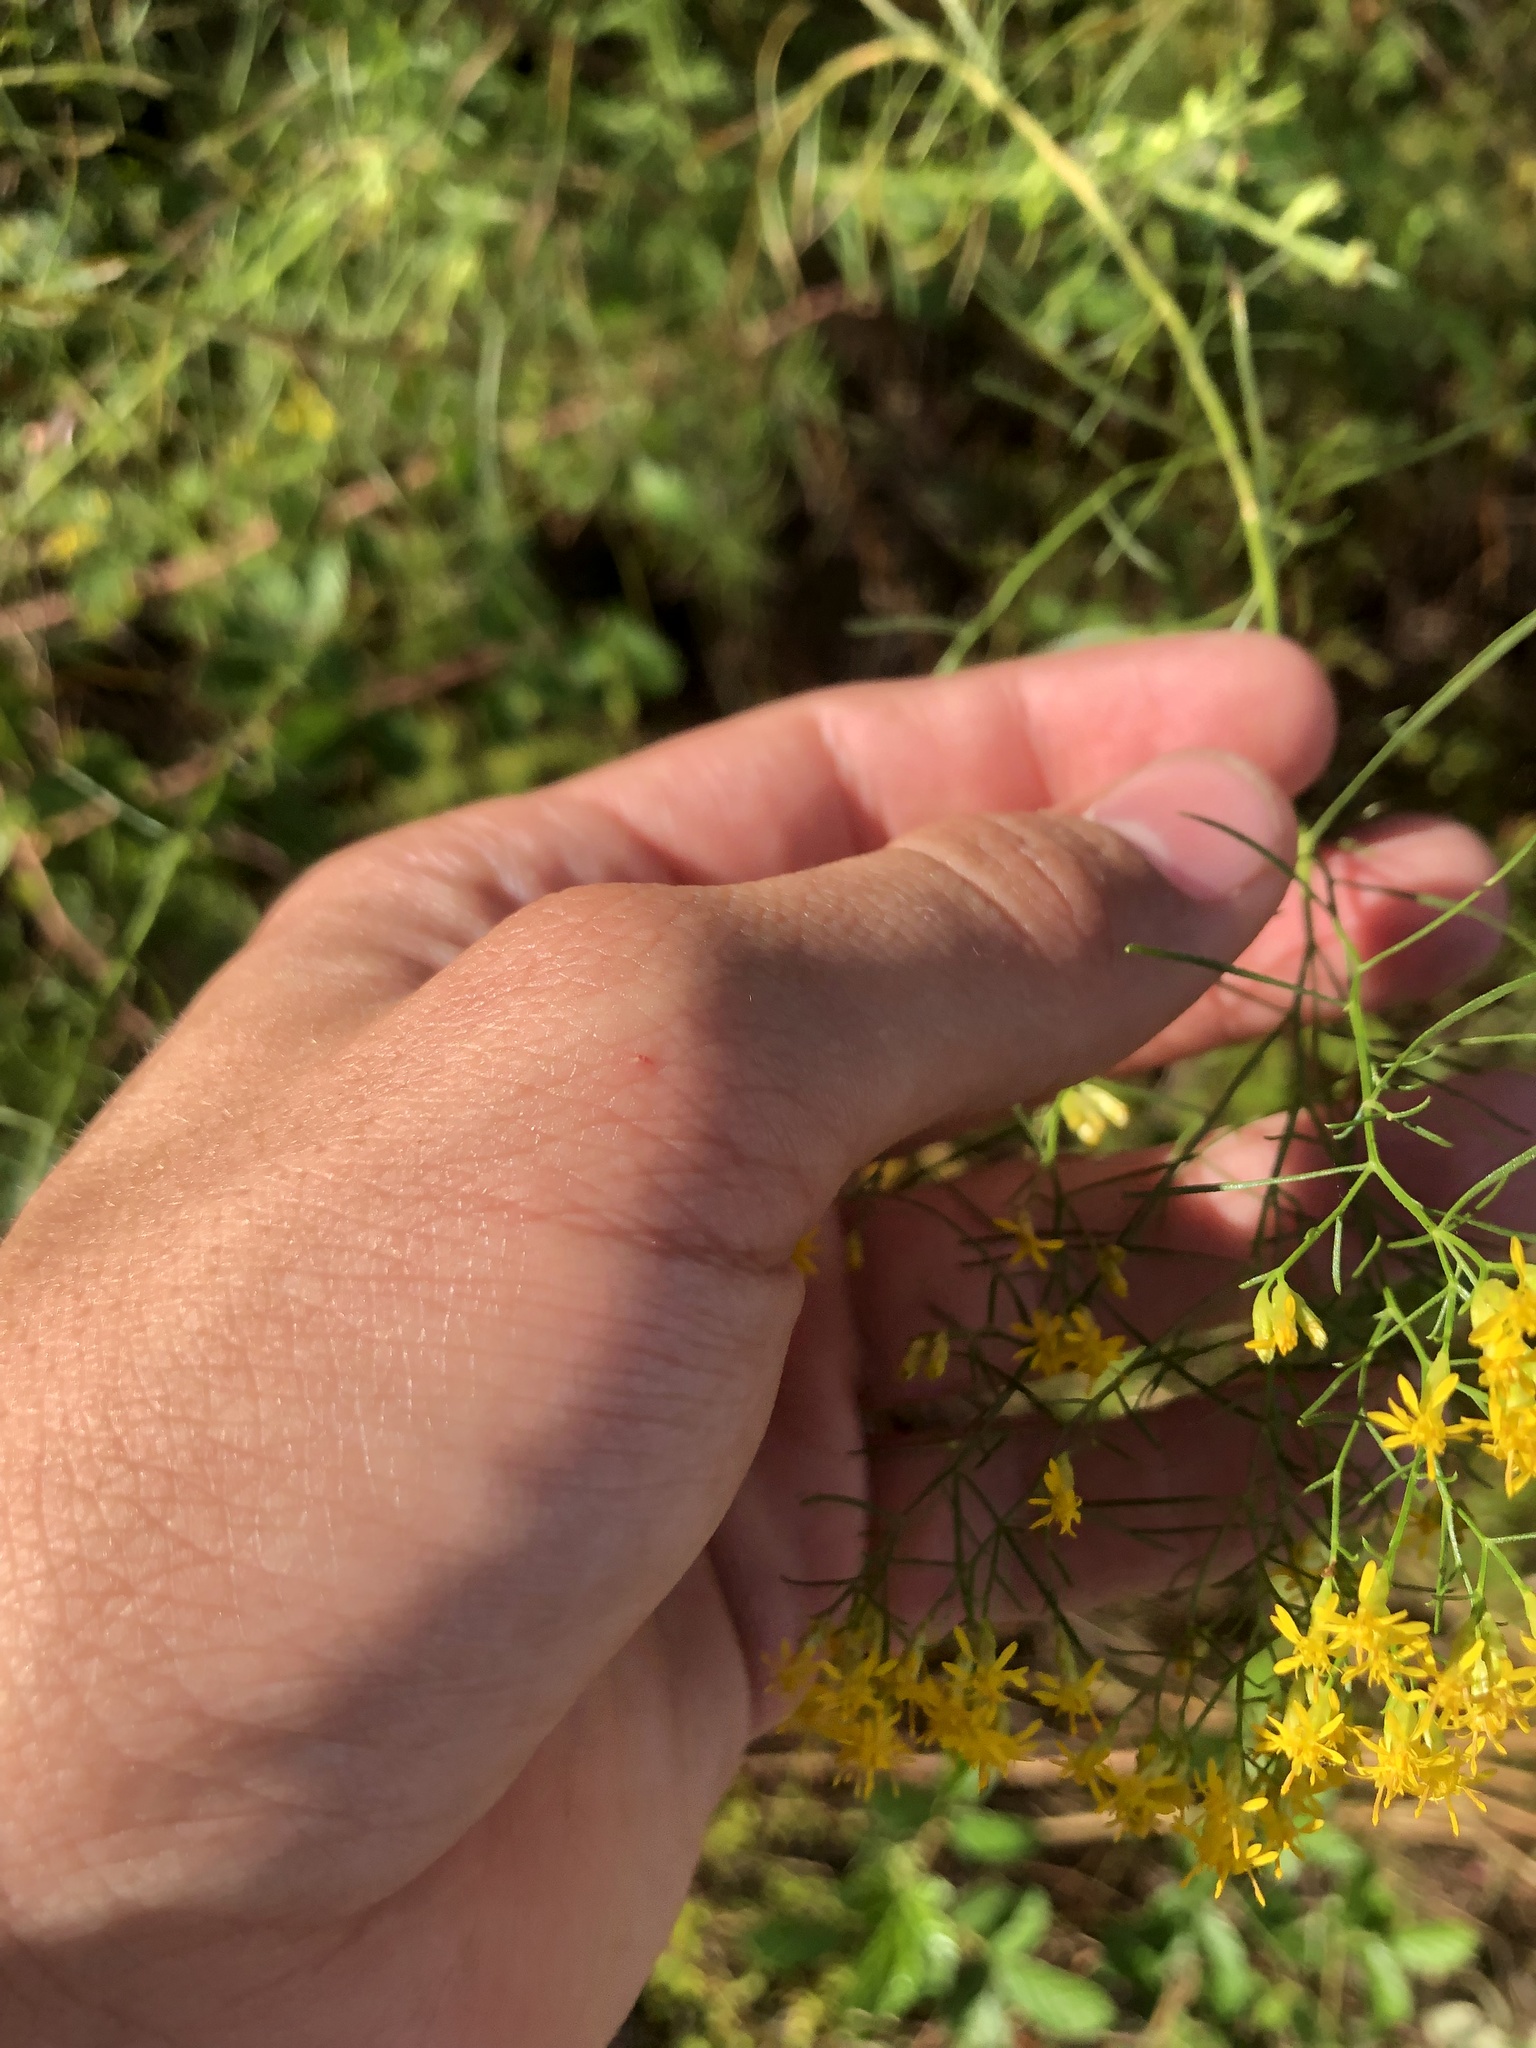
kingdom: Plantae
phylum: Tracheophyta
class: Magnoliopsida
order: Asterales
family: Asteraceae
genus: Euthamia
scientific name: Euthamia caroliniana
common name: Coastal plain goldentop
